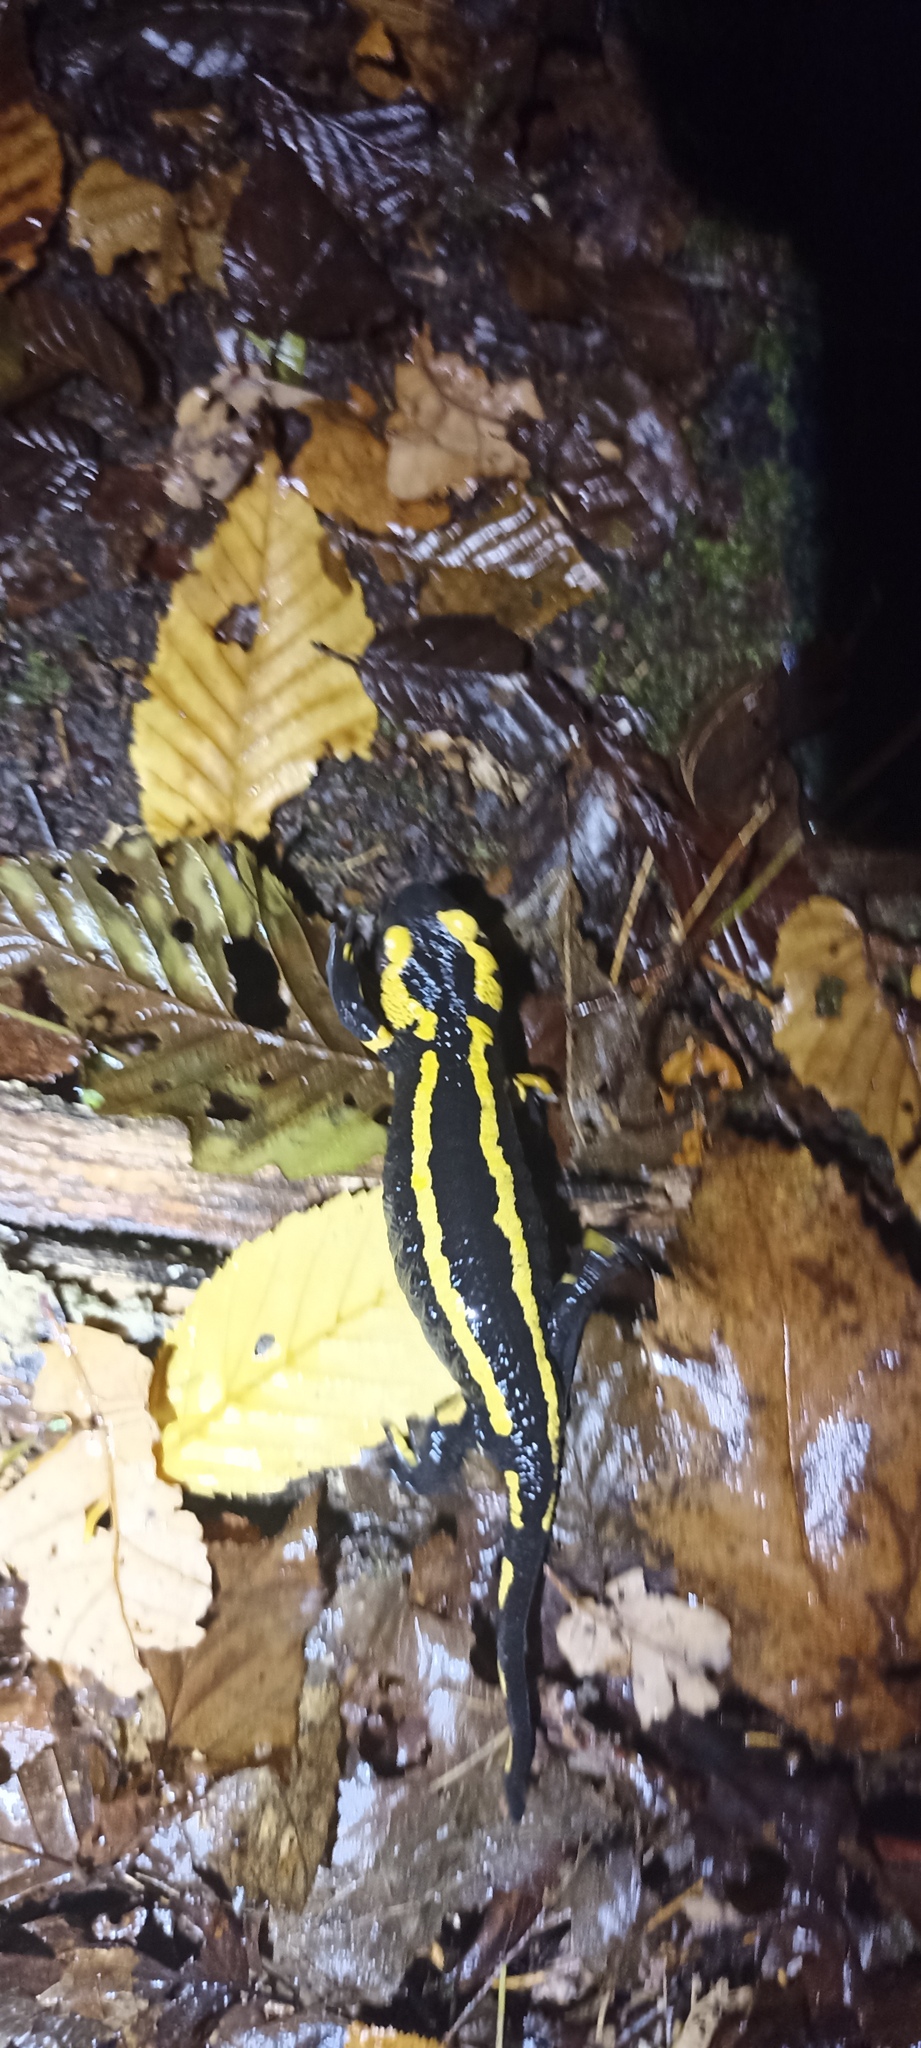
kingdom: Animalia
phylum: Chordata
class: Amphibia
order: Caudata
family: Salamandridae
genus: Salamandra
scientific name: Salamandra salamandra
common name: Fire salamander
